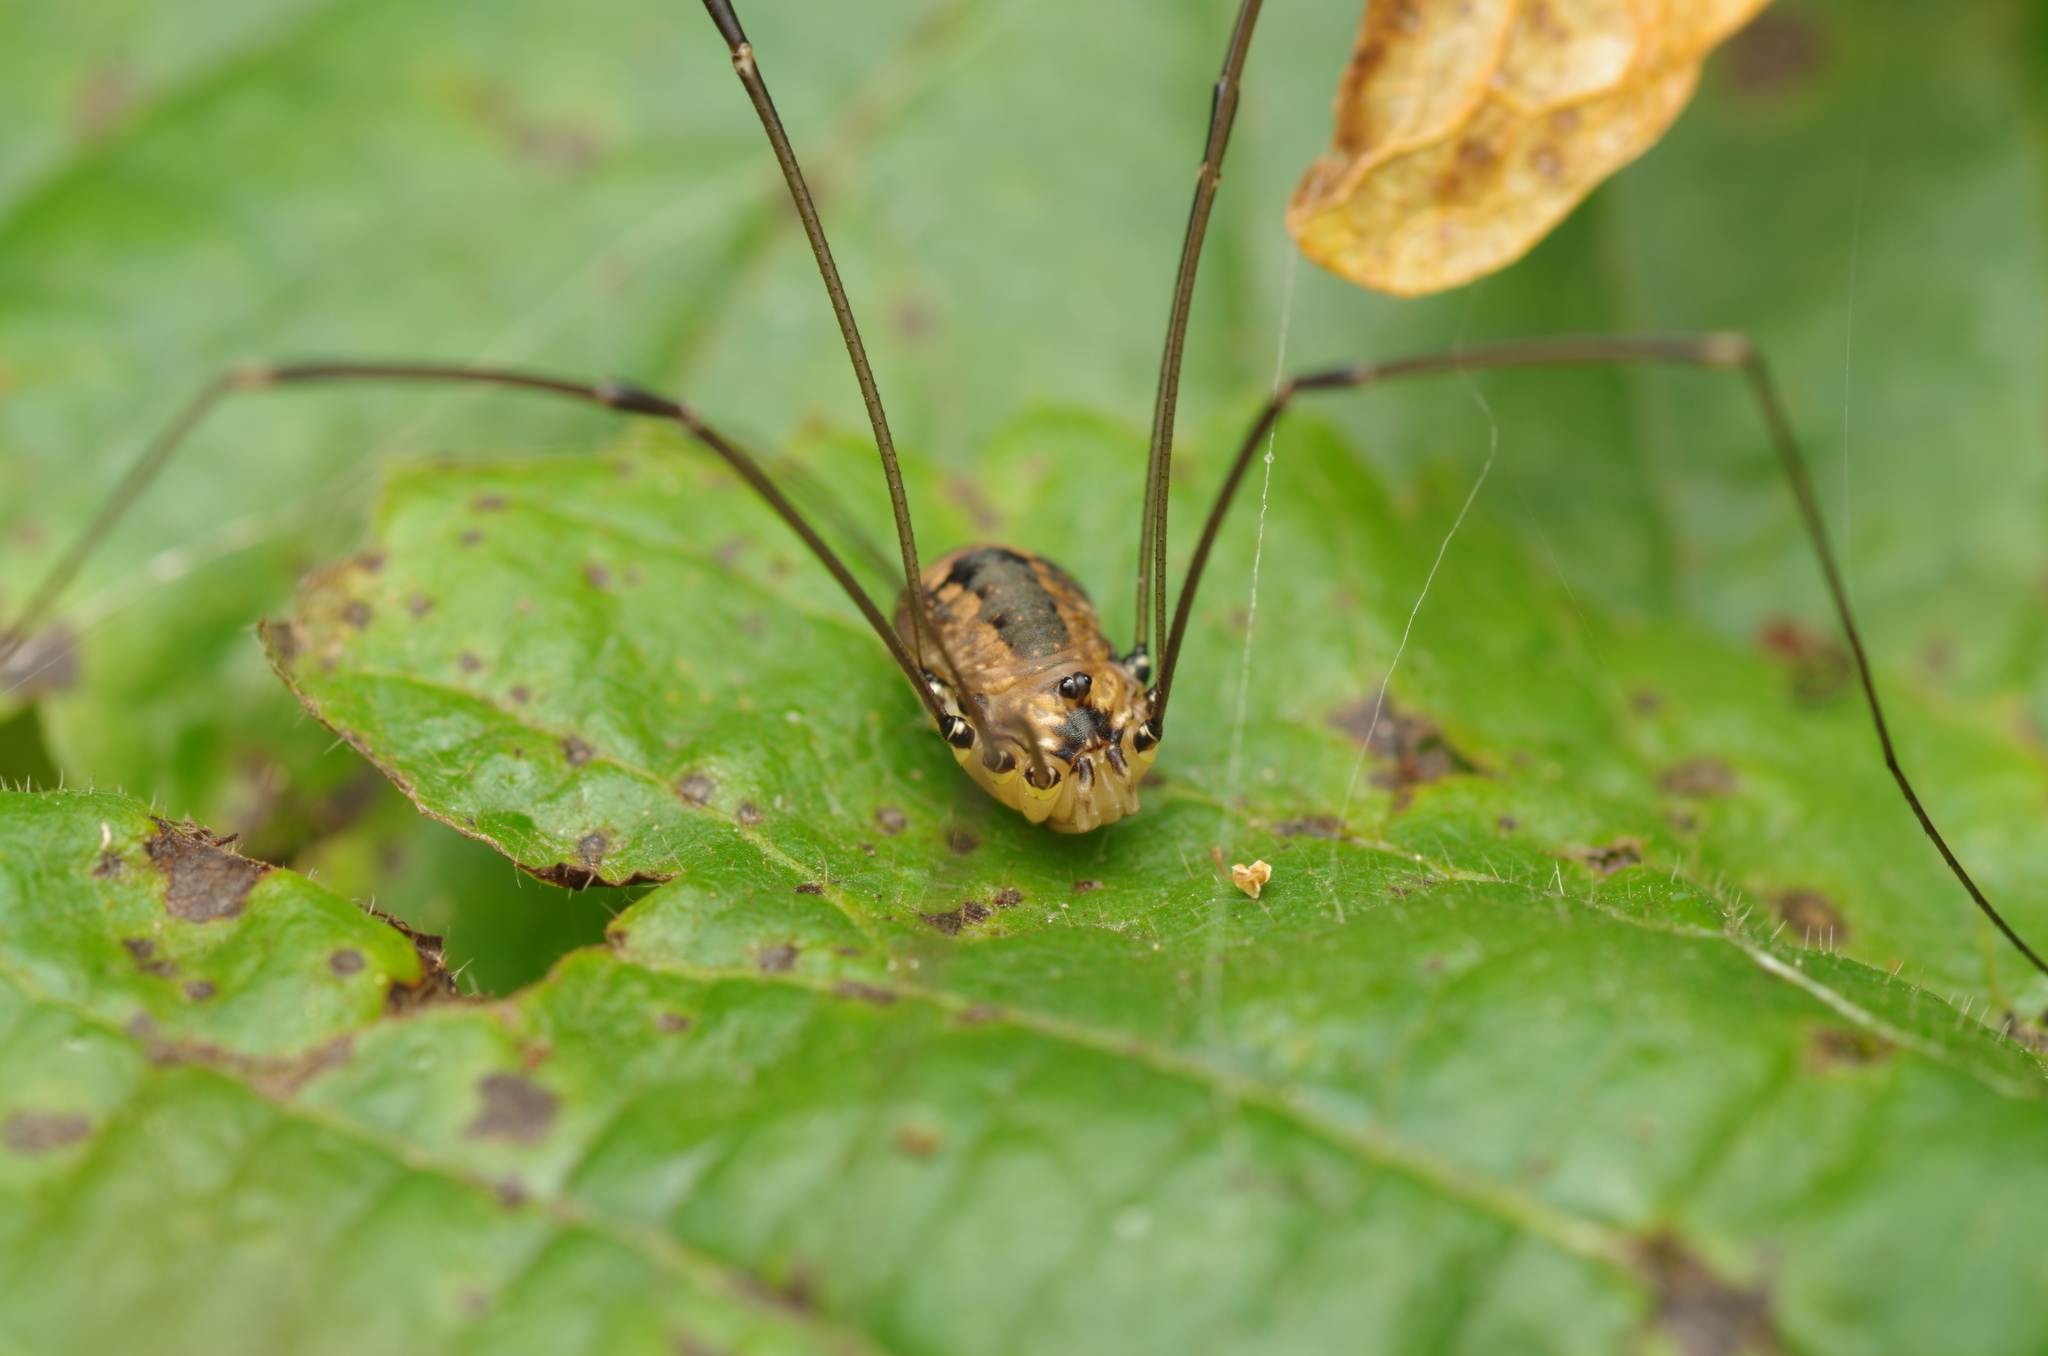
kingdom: Animalia
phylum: Arthropoda
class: Arachnida
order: Opiliones
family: Sclerosomatidae
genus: Leiobunum
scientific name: Leiobunum rotundum
